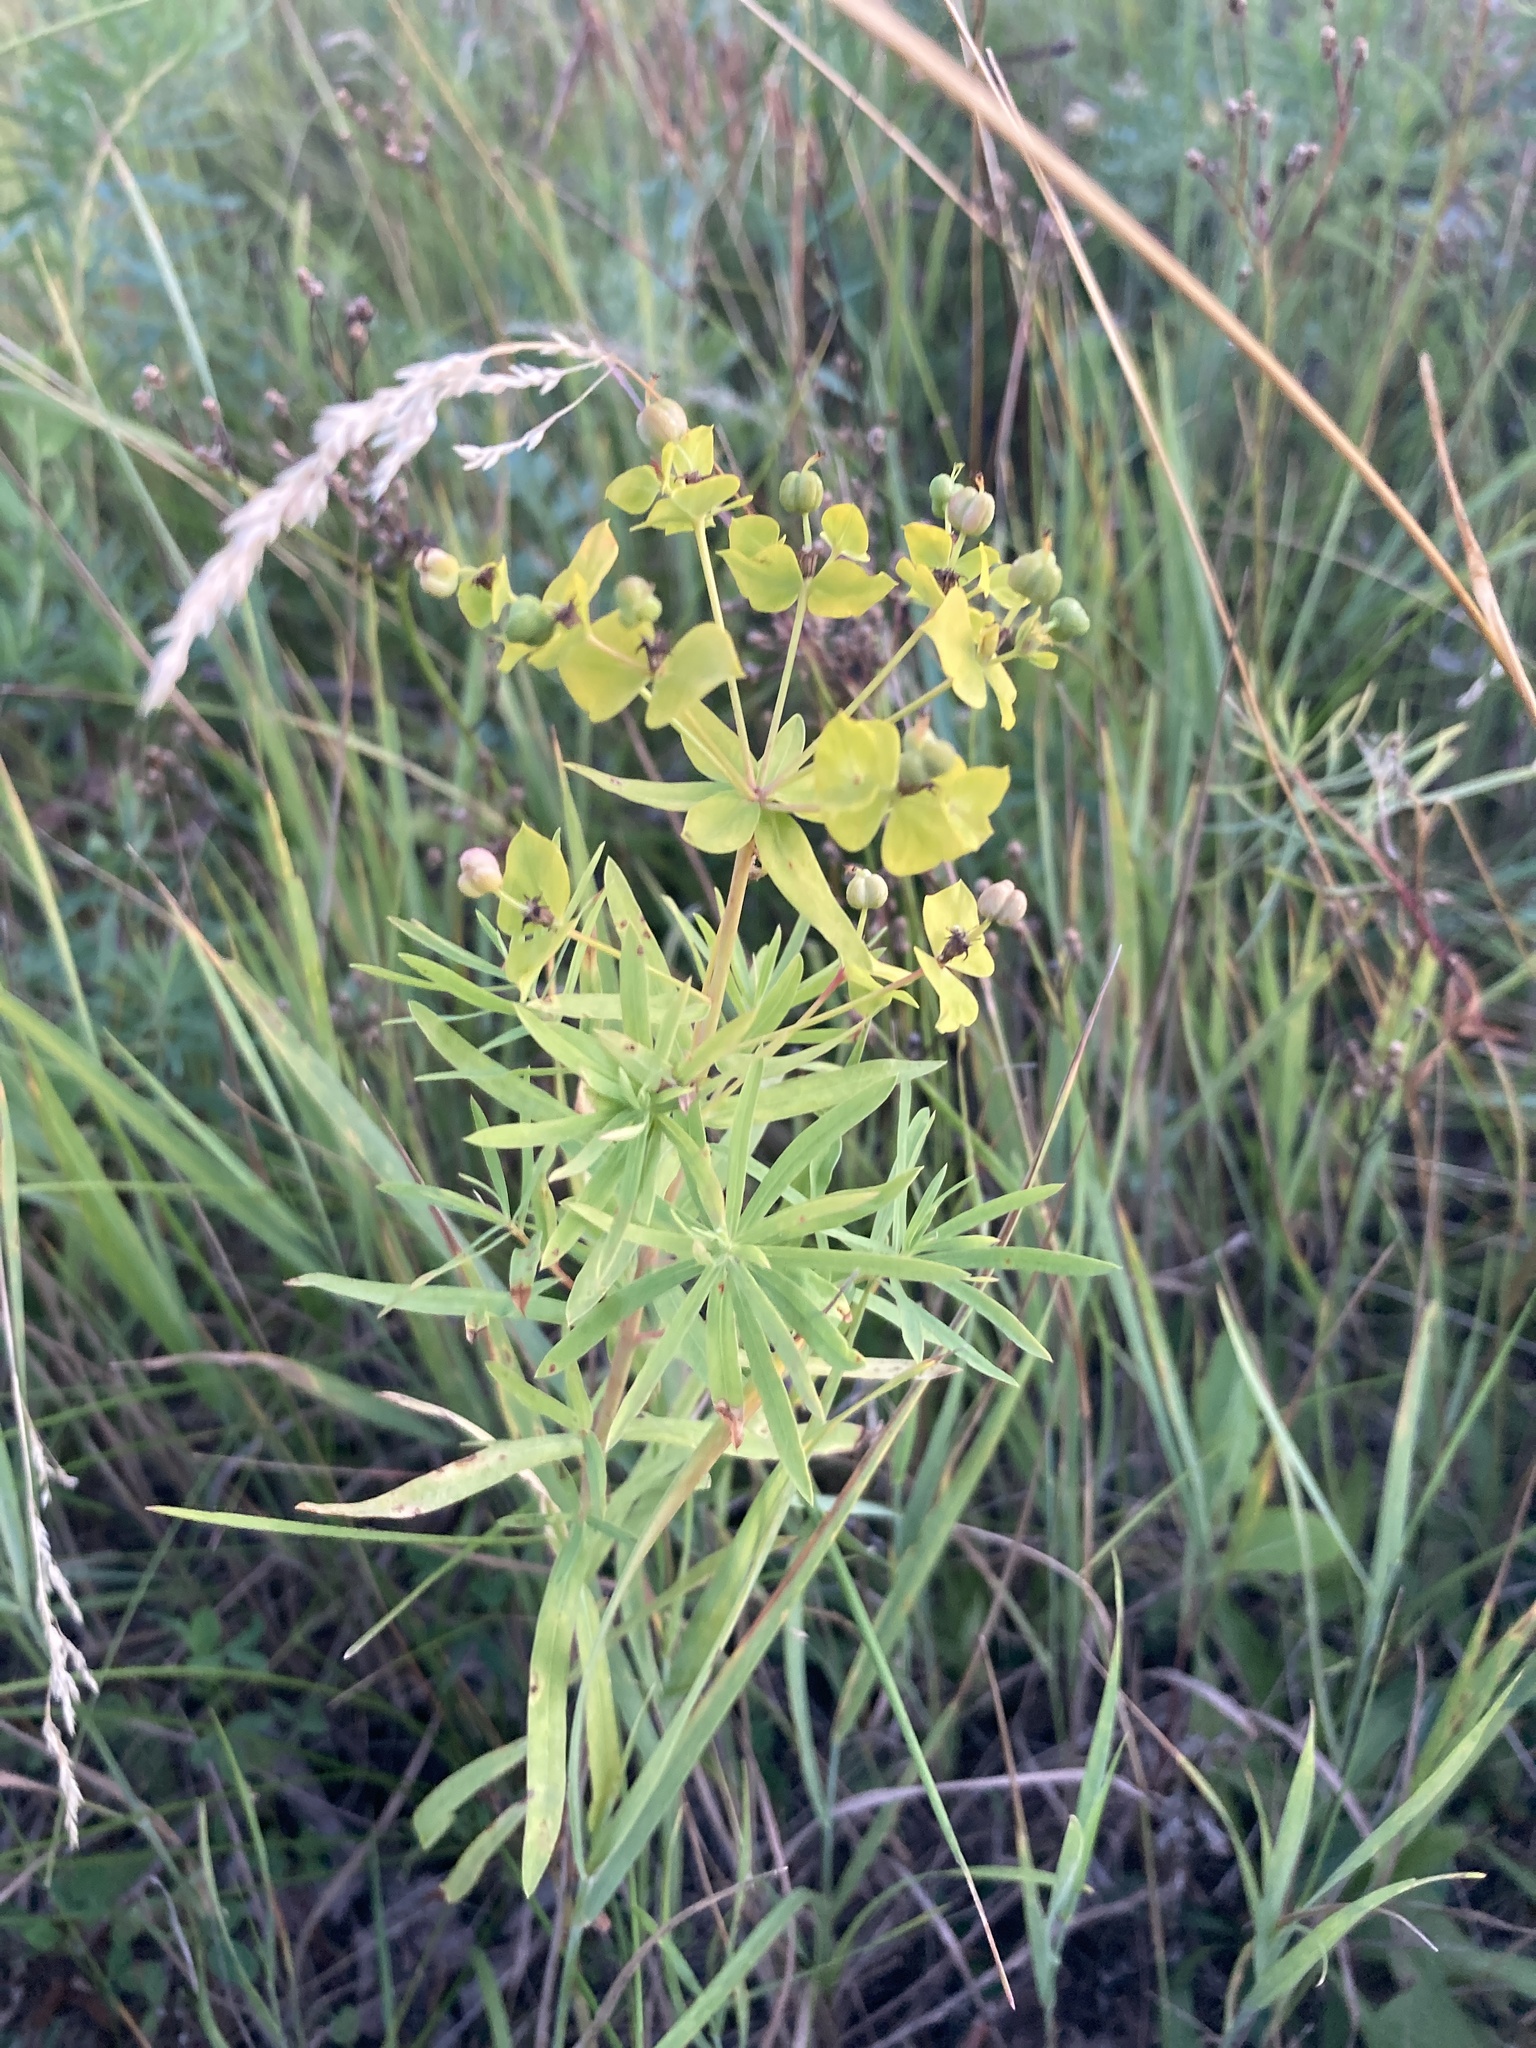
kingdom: Plantae
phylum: Tracheophyta
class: Magnoliopsida
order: Malpighiales
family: Euphorbiaceae
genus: Euphorbia
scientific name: Euphorbia virgata
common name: Leafy spurge
